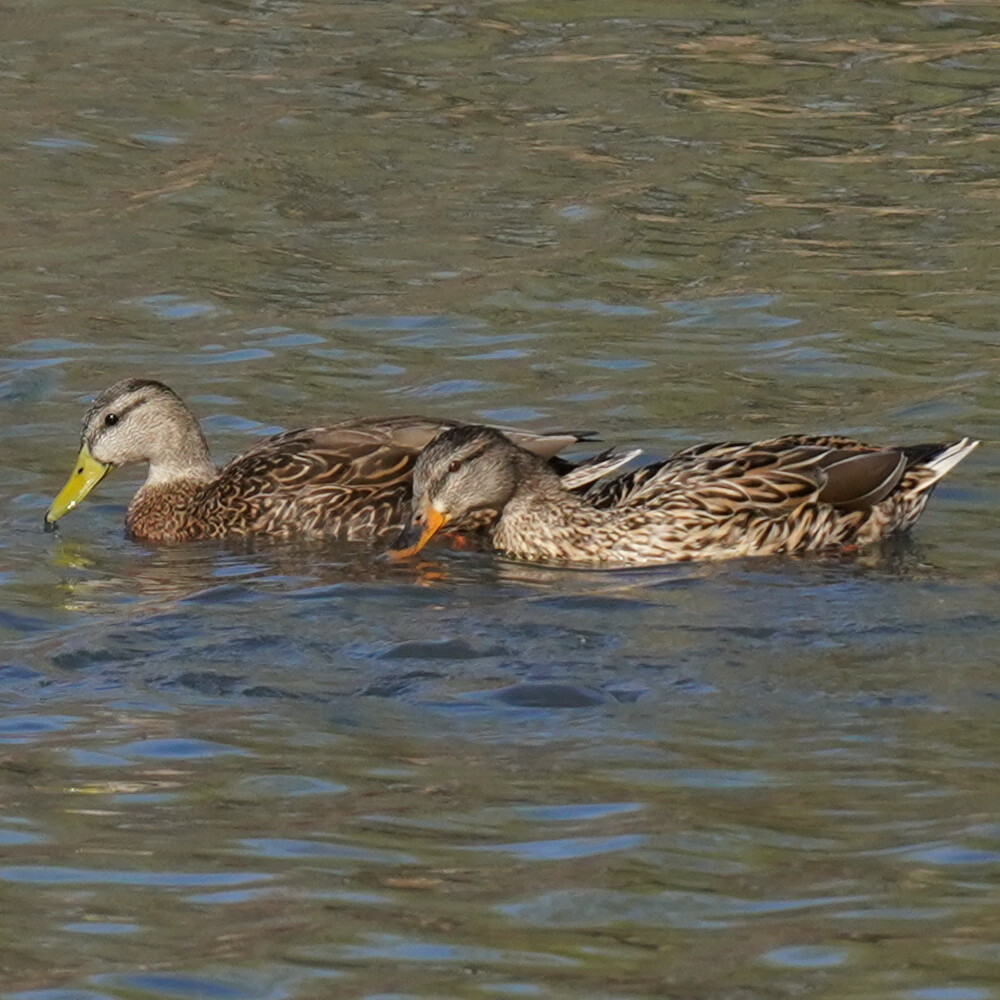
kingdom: Animalia
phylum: Chordata
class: Aves
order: Anseriformes
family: Anatidae
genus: Anas
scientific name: Anas diazi
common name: Mexican duck
